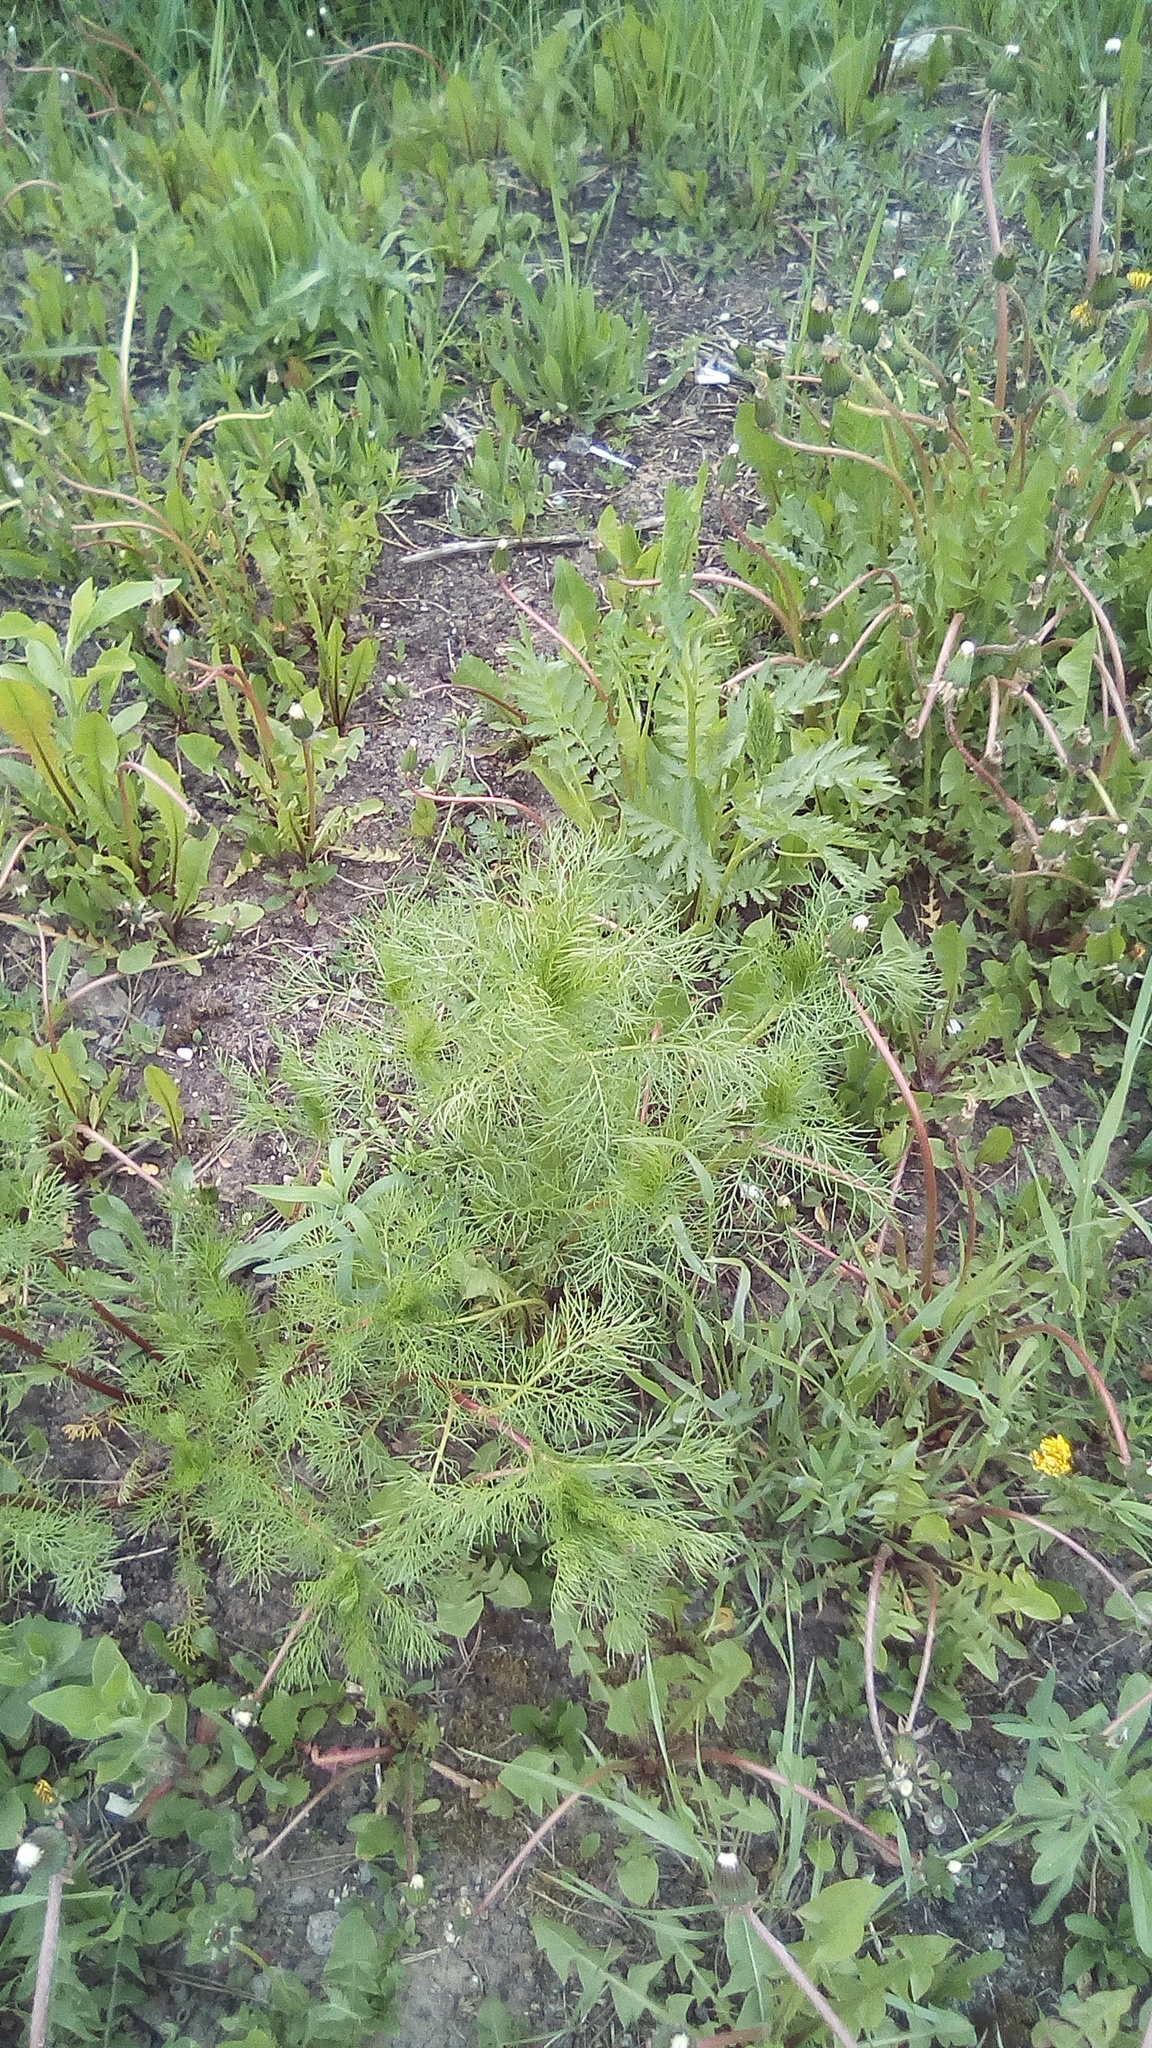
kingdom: Plantae
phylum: Tracheophyta
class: Magnoliopsida
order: Asterales
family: Asteraceae
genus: Tripleurospermum
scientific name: Tripleurospermum inodorum
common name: Scentless mayweed
